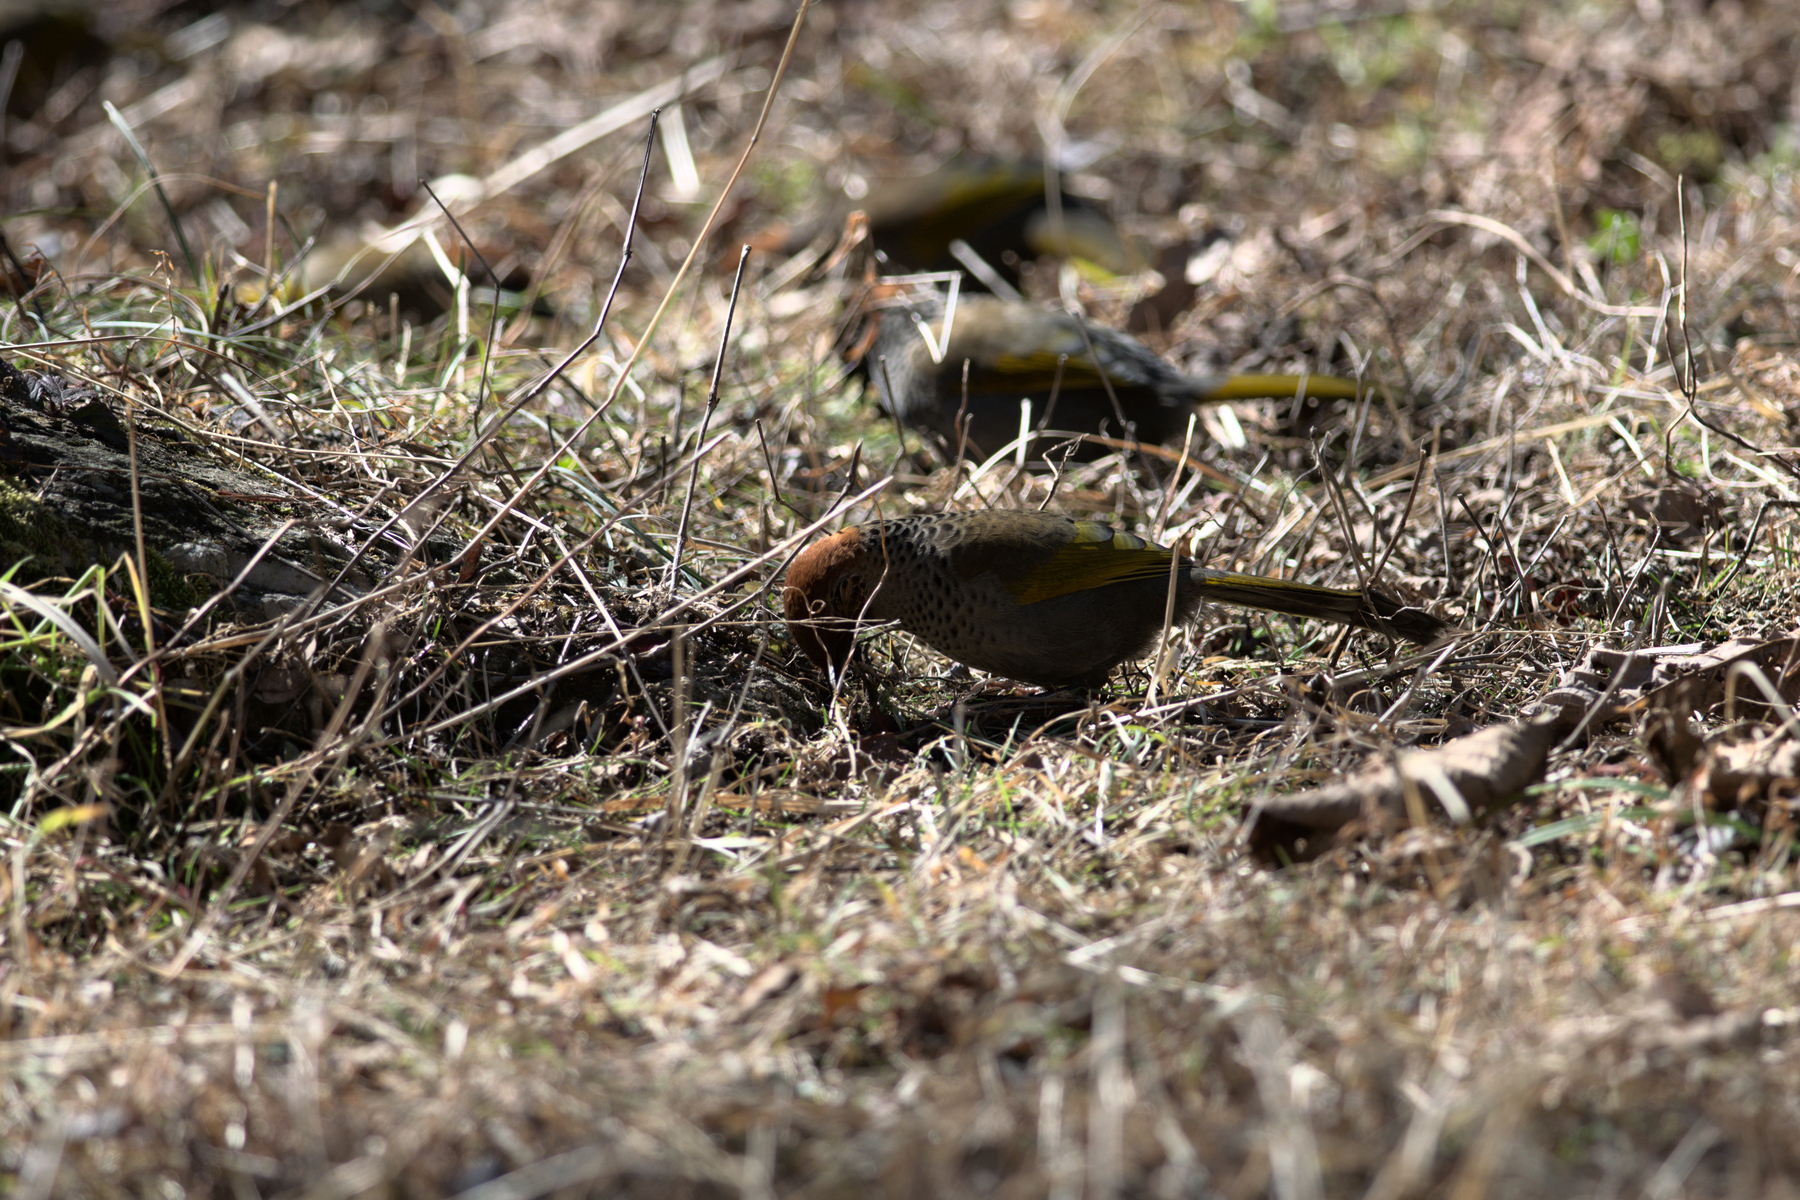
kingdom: Animalia
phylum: Chordata
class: Aves
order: Passeriformes
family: Leiothrichidae
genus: Trochalopteron
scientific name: Trochalopteron erythrocephalum
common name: Chestnut-crowned laughingthrush
